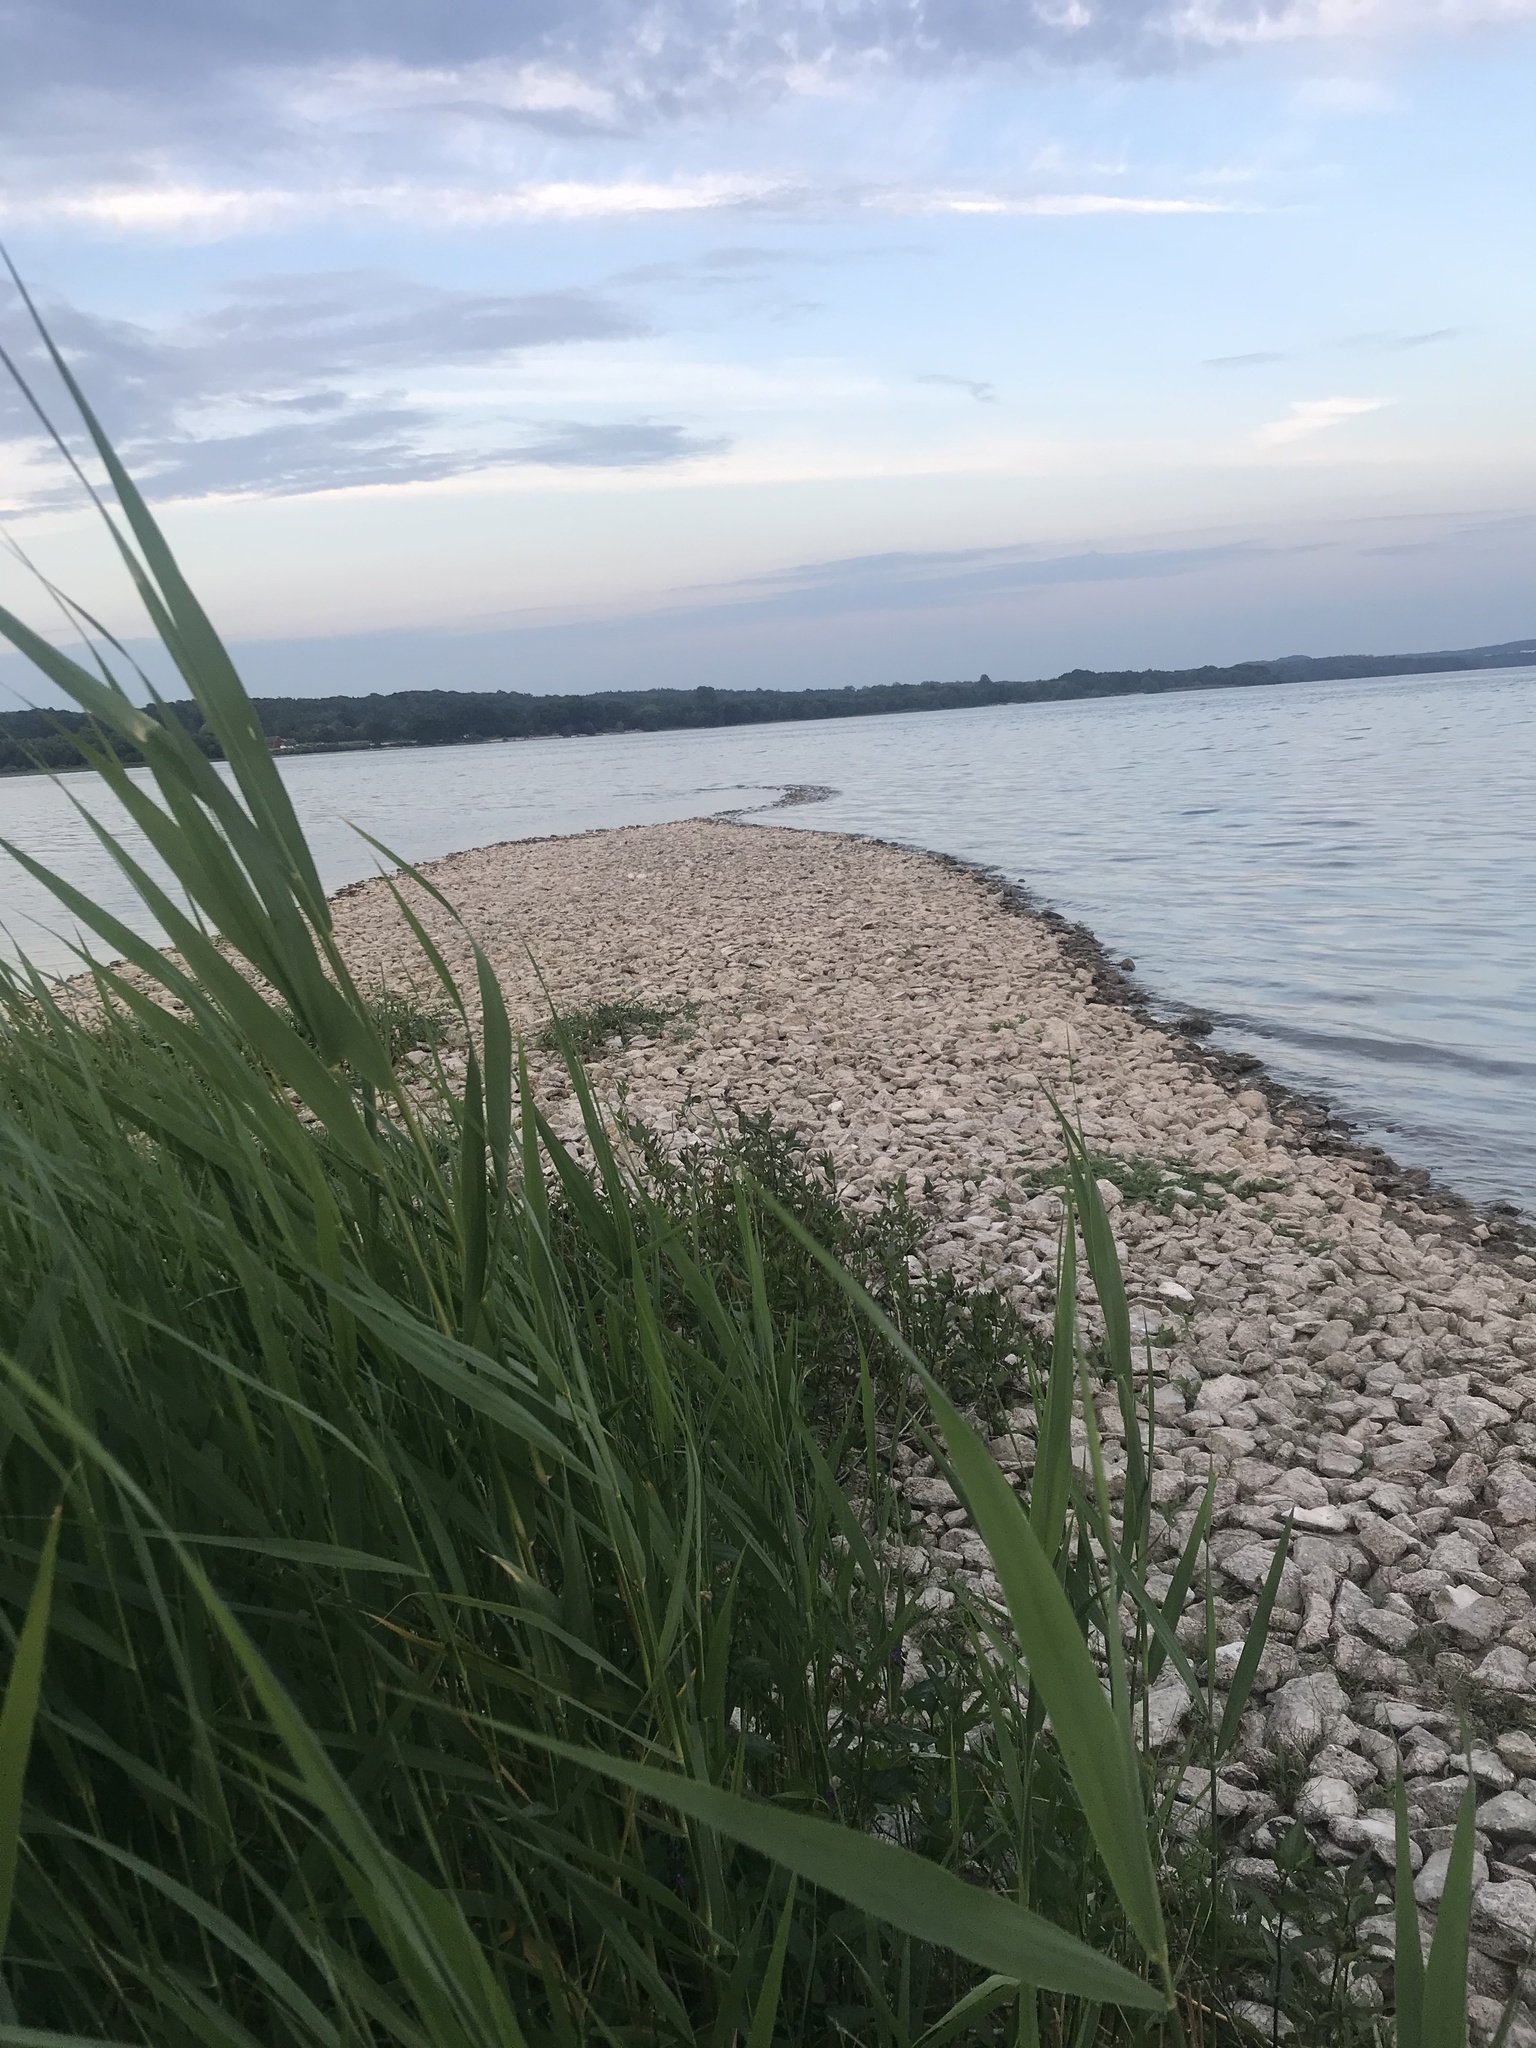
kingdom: Plantae
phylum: Tracheophyta
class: Liliopsida
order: Poales
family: Poaceae
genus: Phragmites
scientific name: Phragmites australis
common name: Common reed
